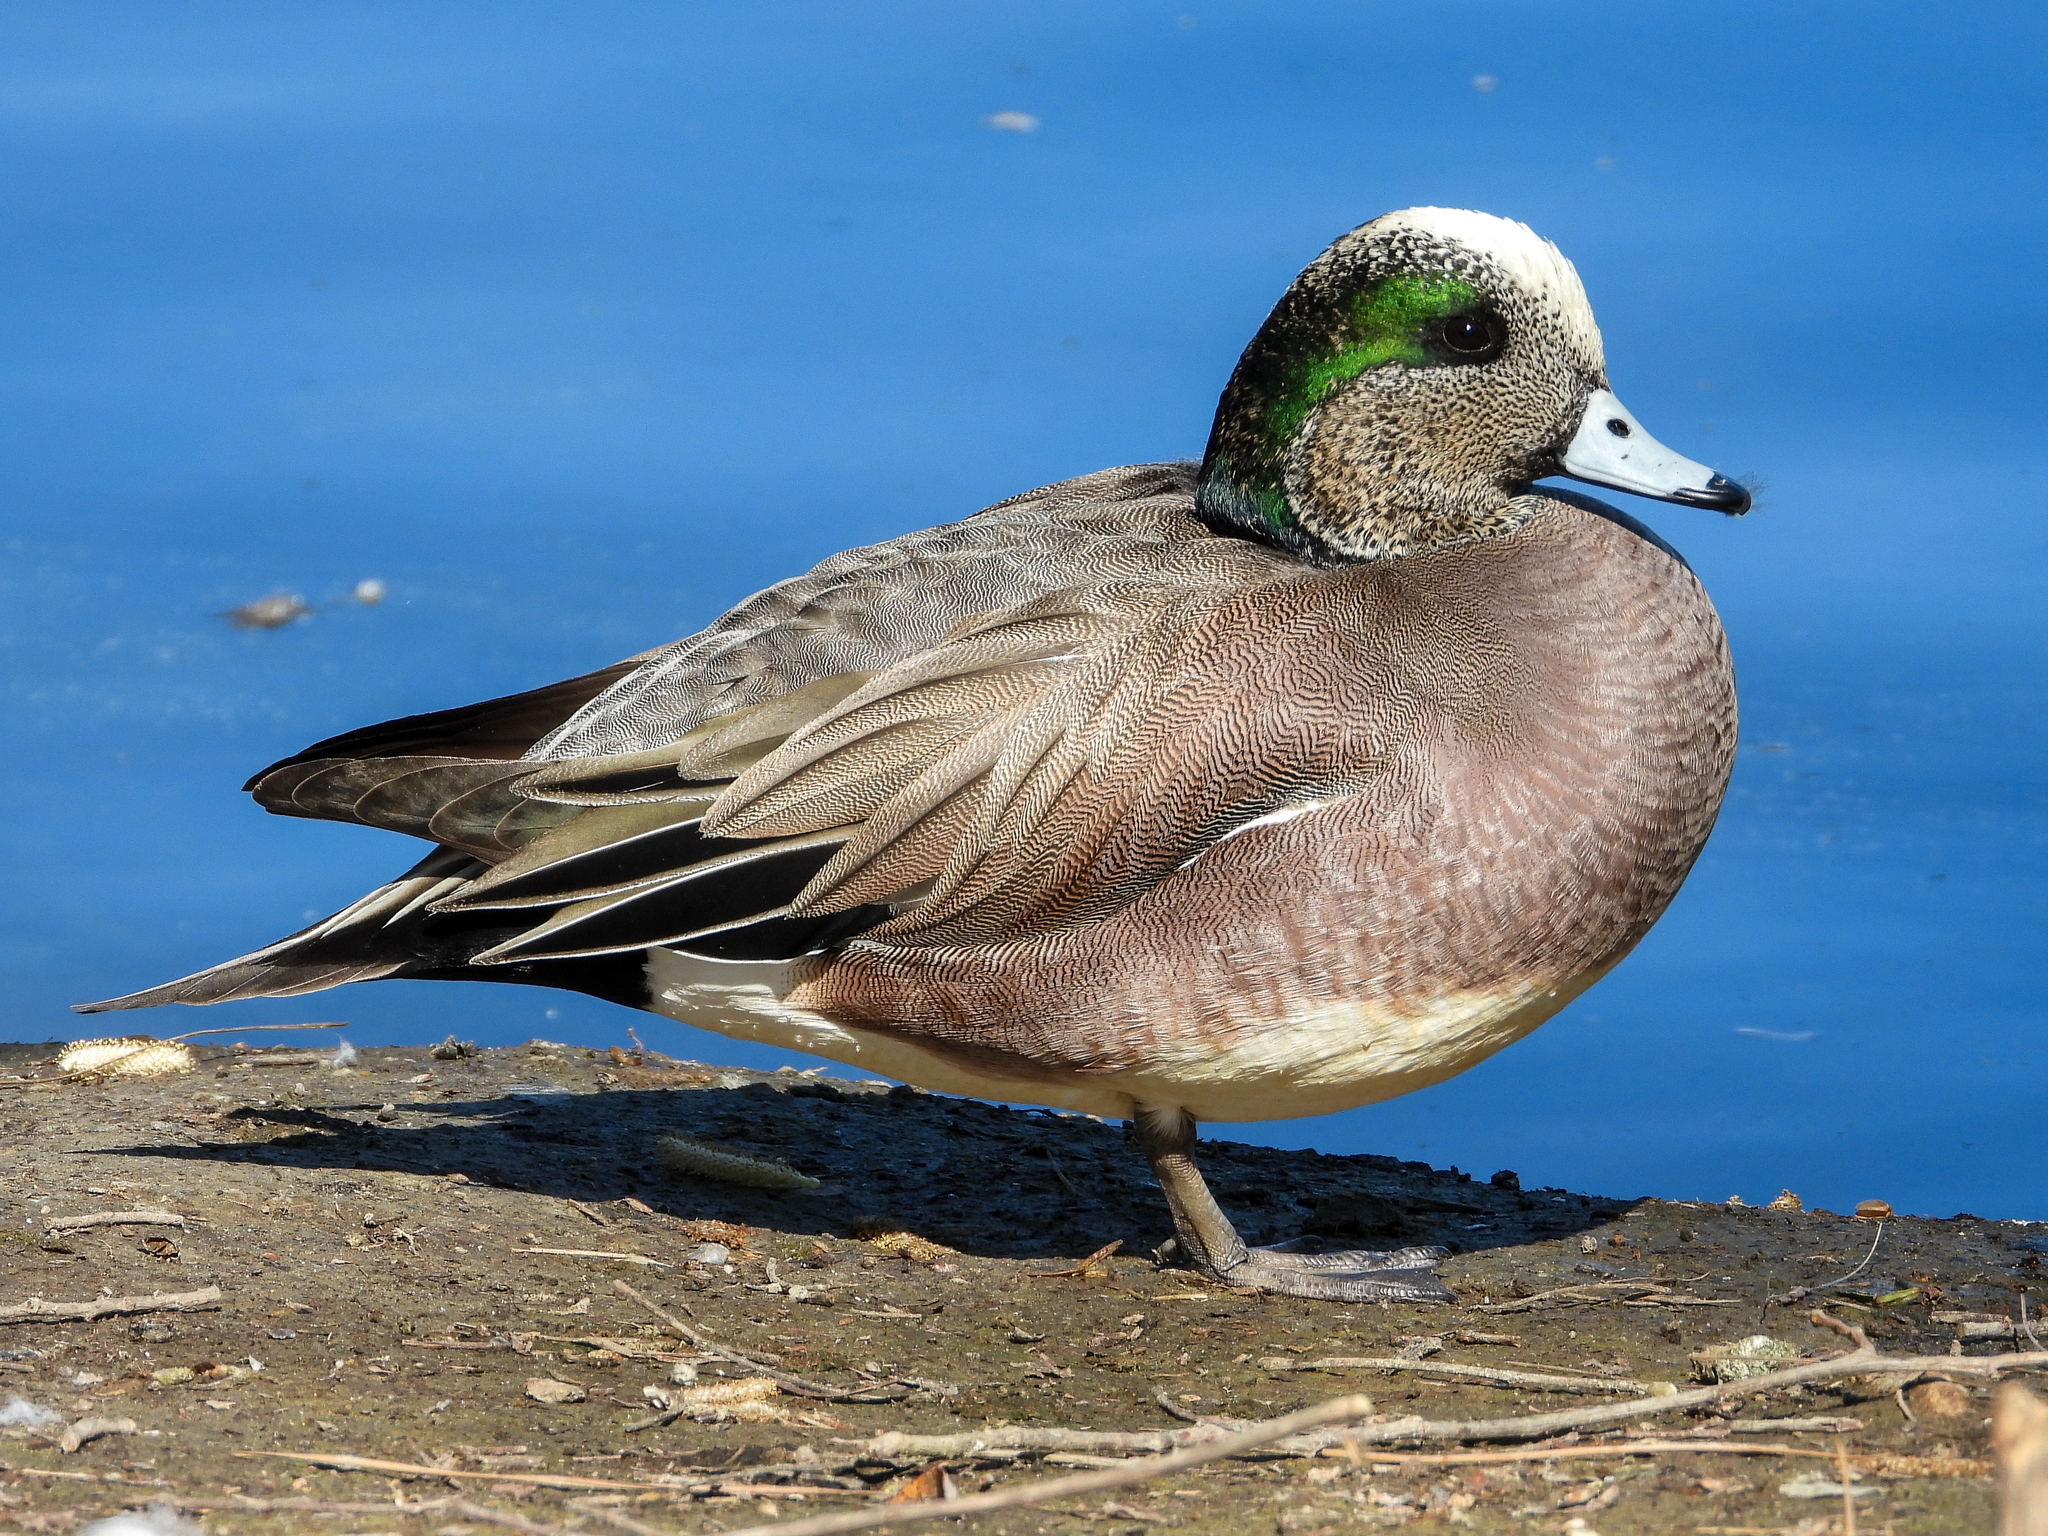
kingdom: Animalia
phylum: Chordata
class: Aves
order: Anseriformes
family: Anatidae
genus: Mareca
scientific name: Mareca americana
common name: American wigeon
